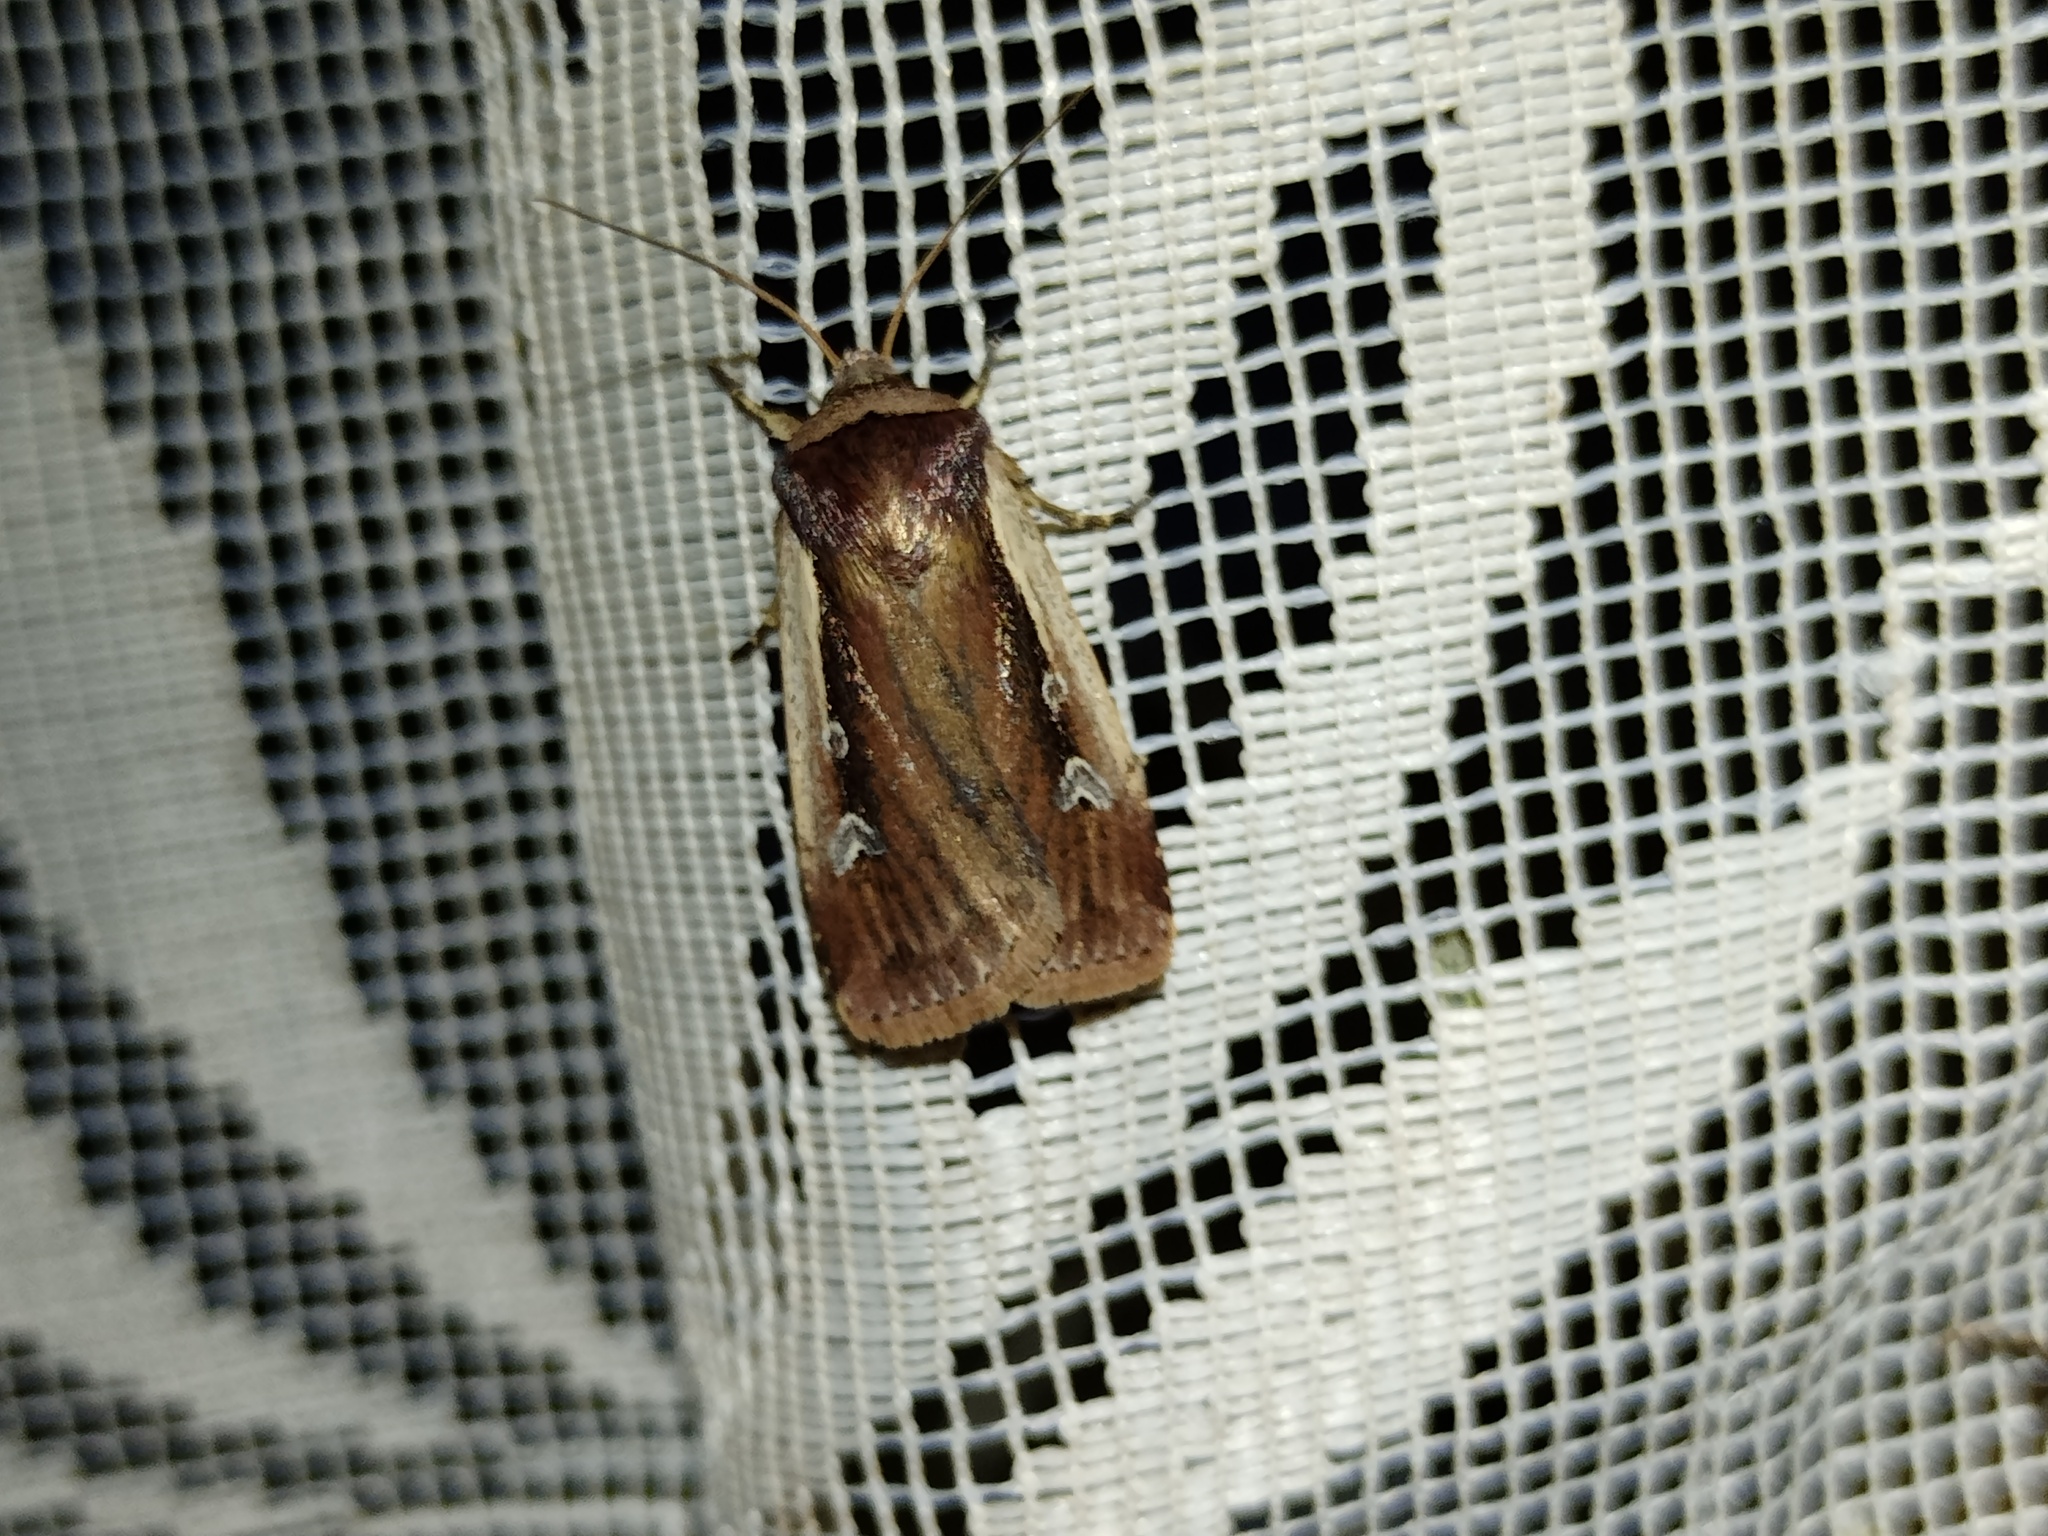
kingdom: Animalia
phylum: Arthropoda
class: Insecta
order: Lepidoptera
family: Noctuidae
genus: Ochropleura
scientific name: Ochropleura plecta
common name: Flame shoulder
